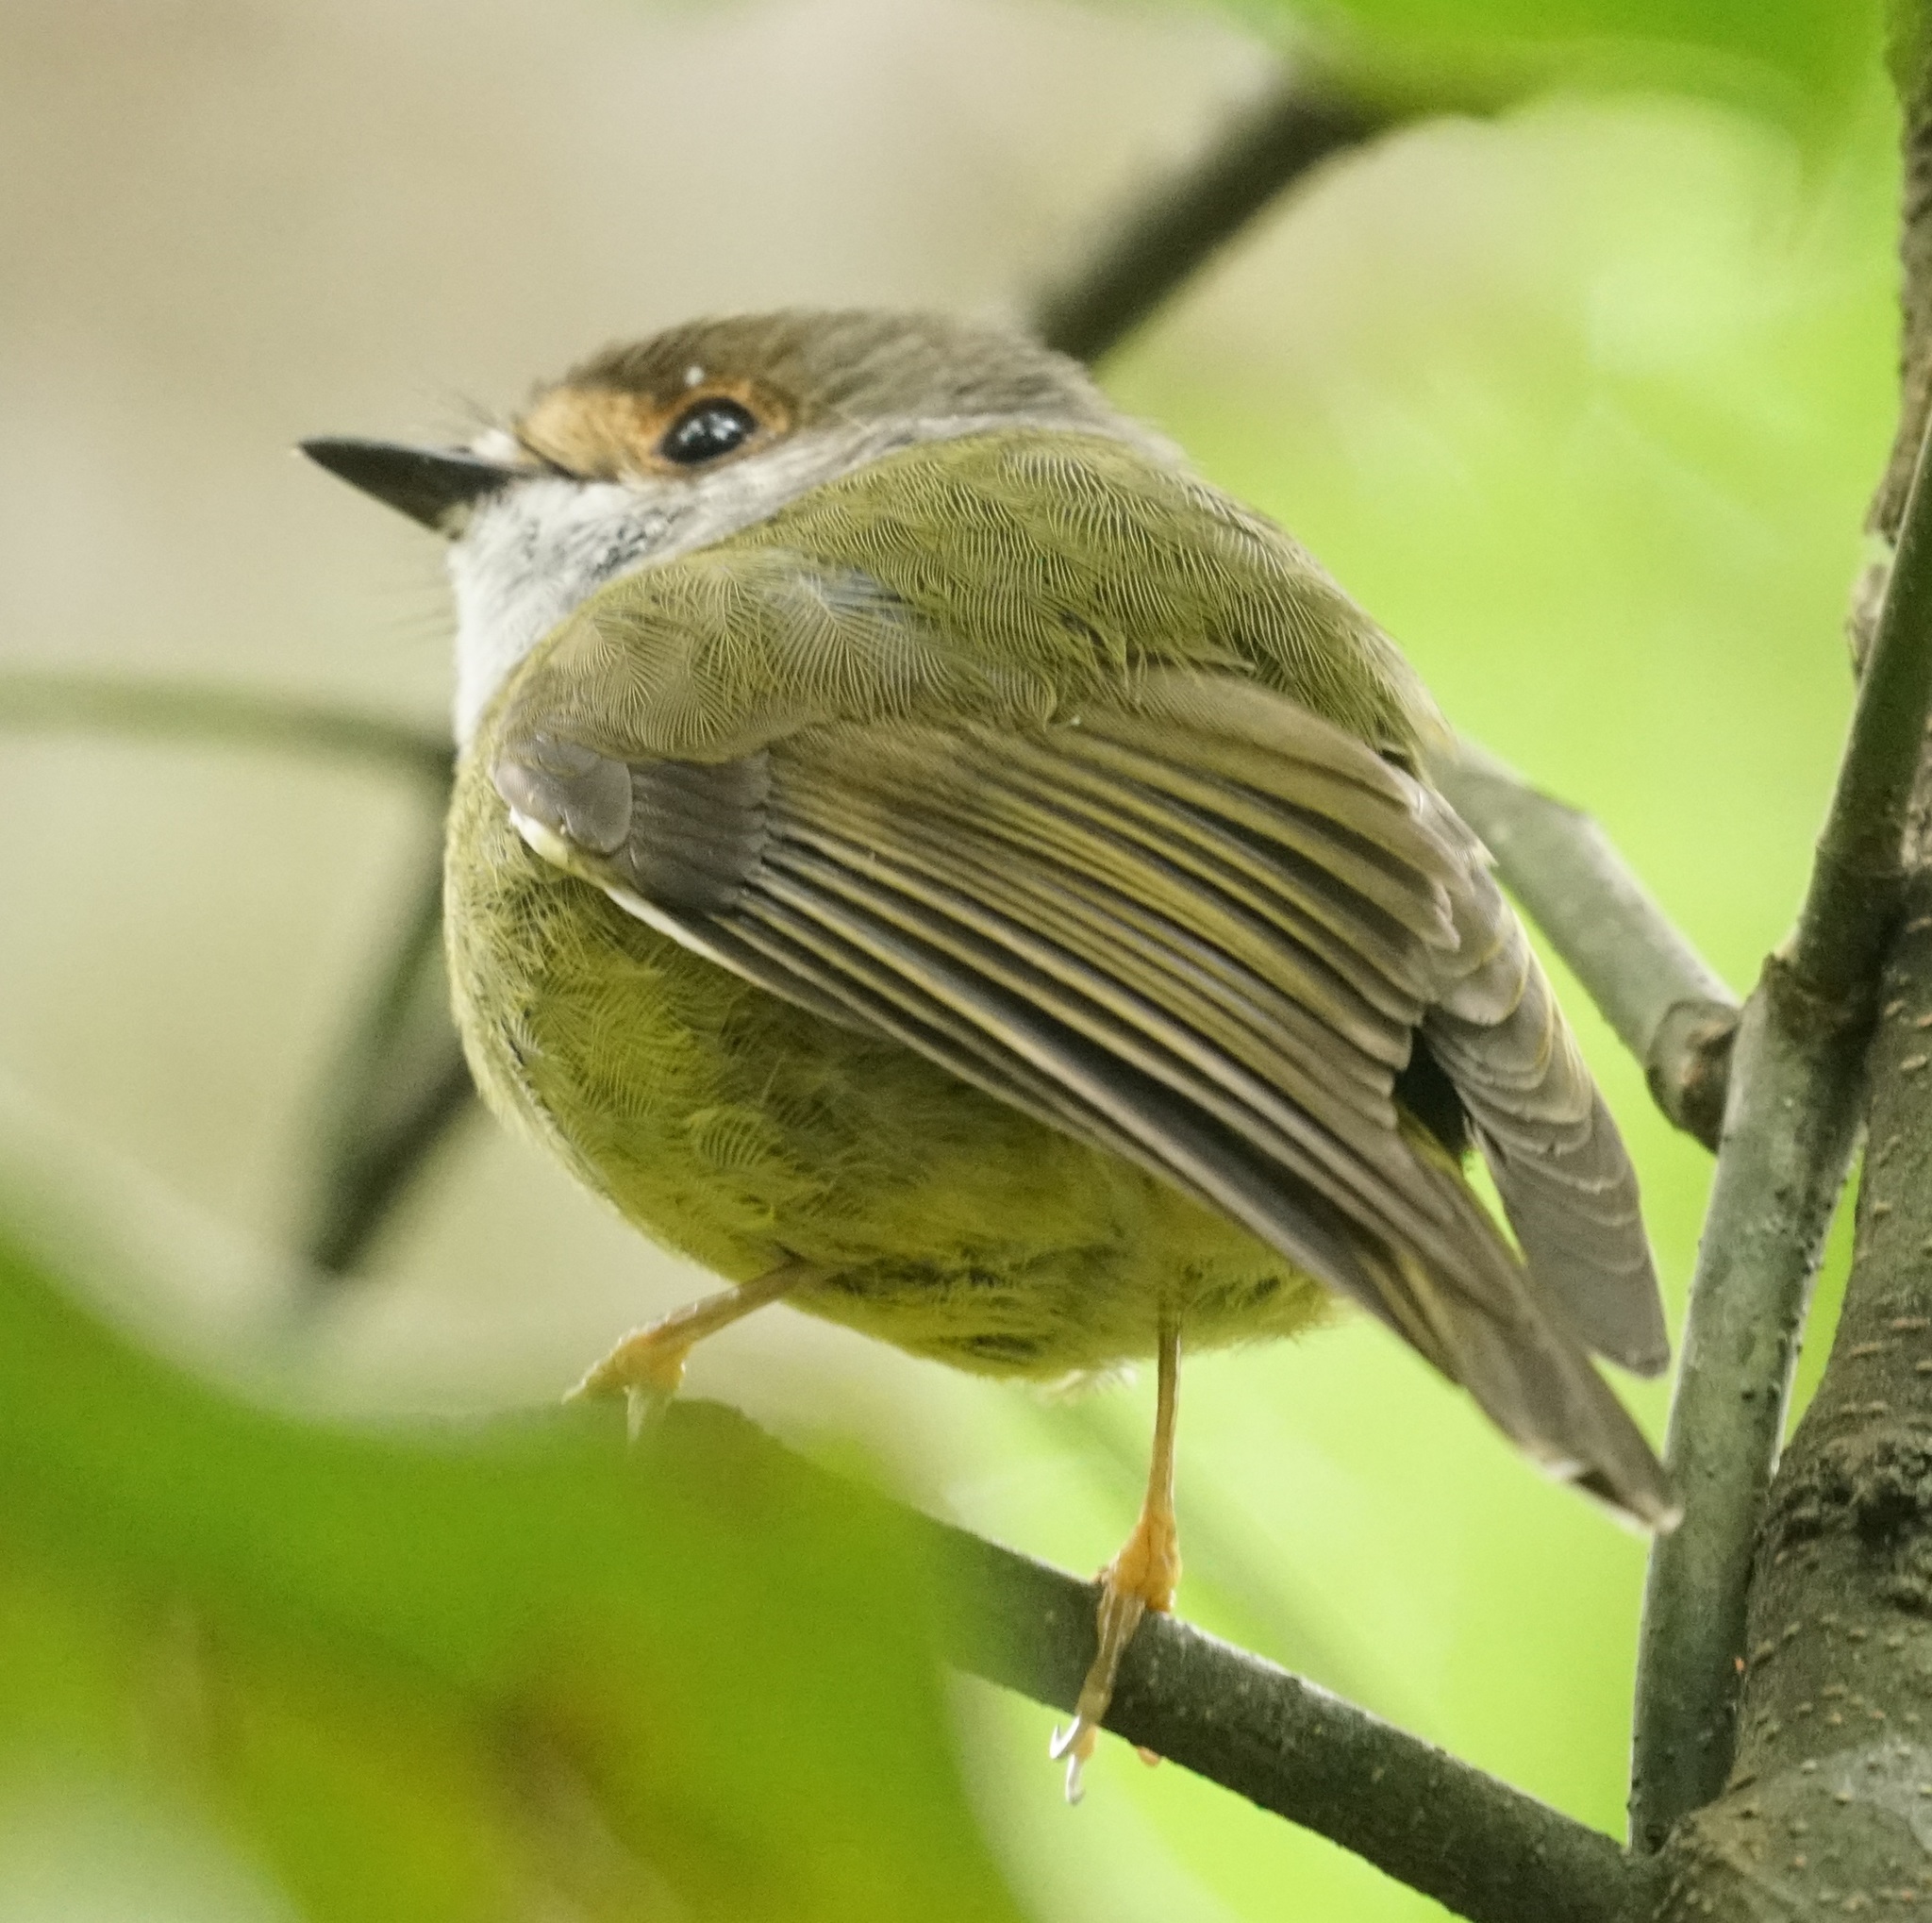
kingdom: Animalia
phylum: Chordata
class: Aves
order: Passeriformes
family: Petroicidae
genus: Eopsaltria
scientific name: Eopsaltria
